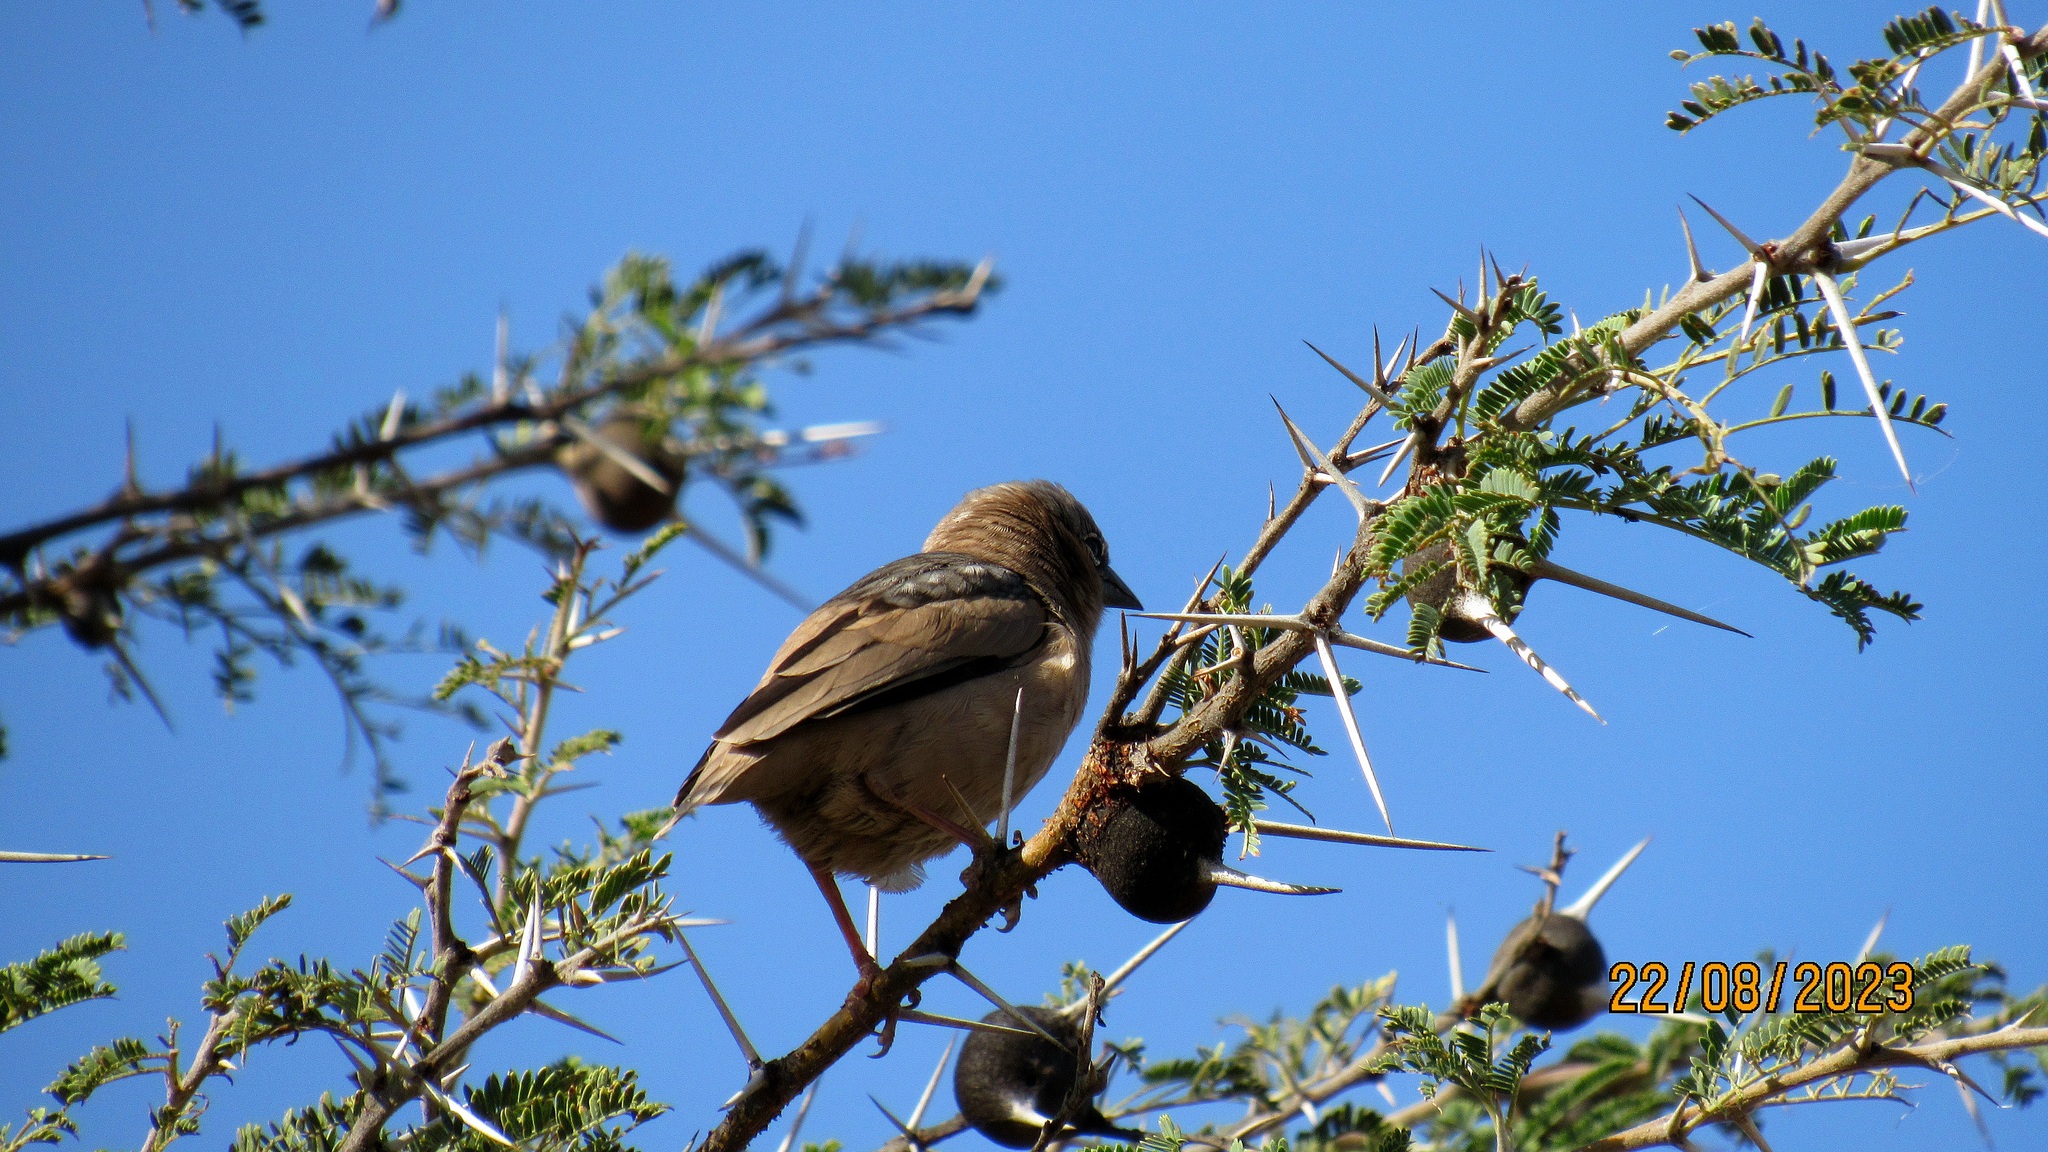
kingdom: Animalia
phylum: Chordata
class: Aves
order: Passeriformes
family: Passeridae
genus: Pseudonigrita
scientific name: Pseudonigrita arnaudi
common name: Grey-capped social weaver
